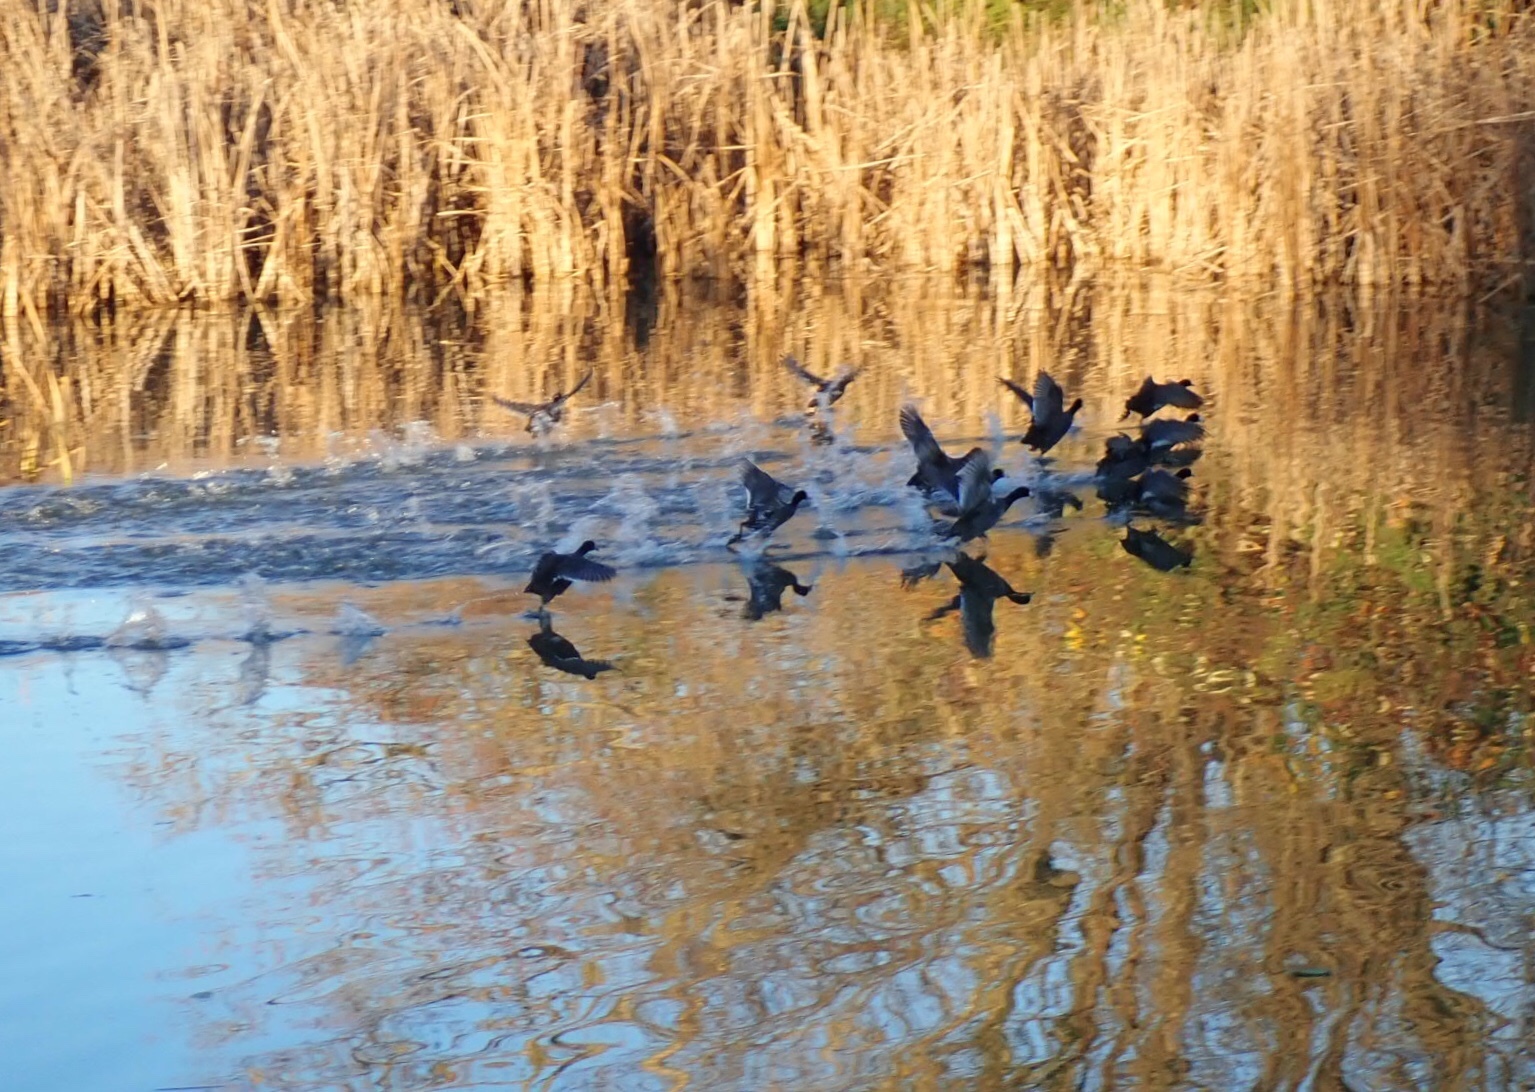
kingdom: Animalia
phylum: Chordata
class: Aves
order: Gruiformes
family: Rallidae
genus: Fulica
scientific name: Fulica americana
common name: American coot
